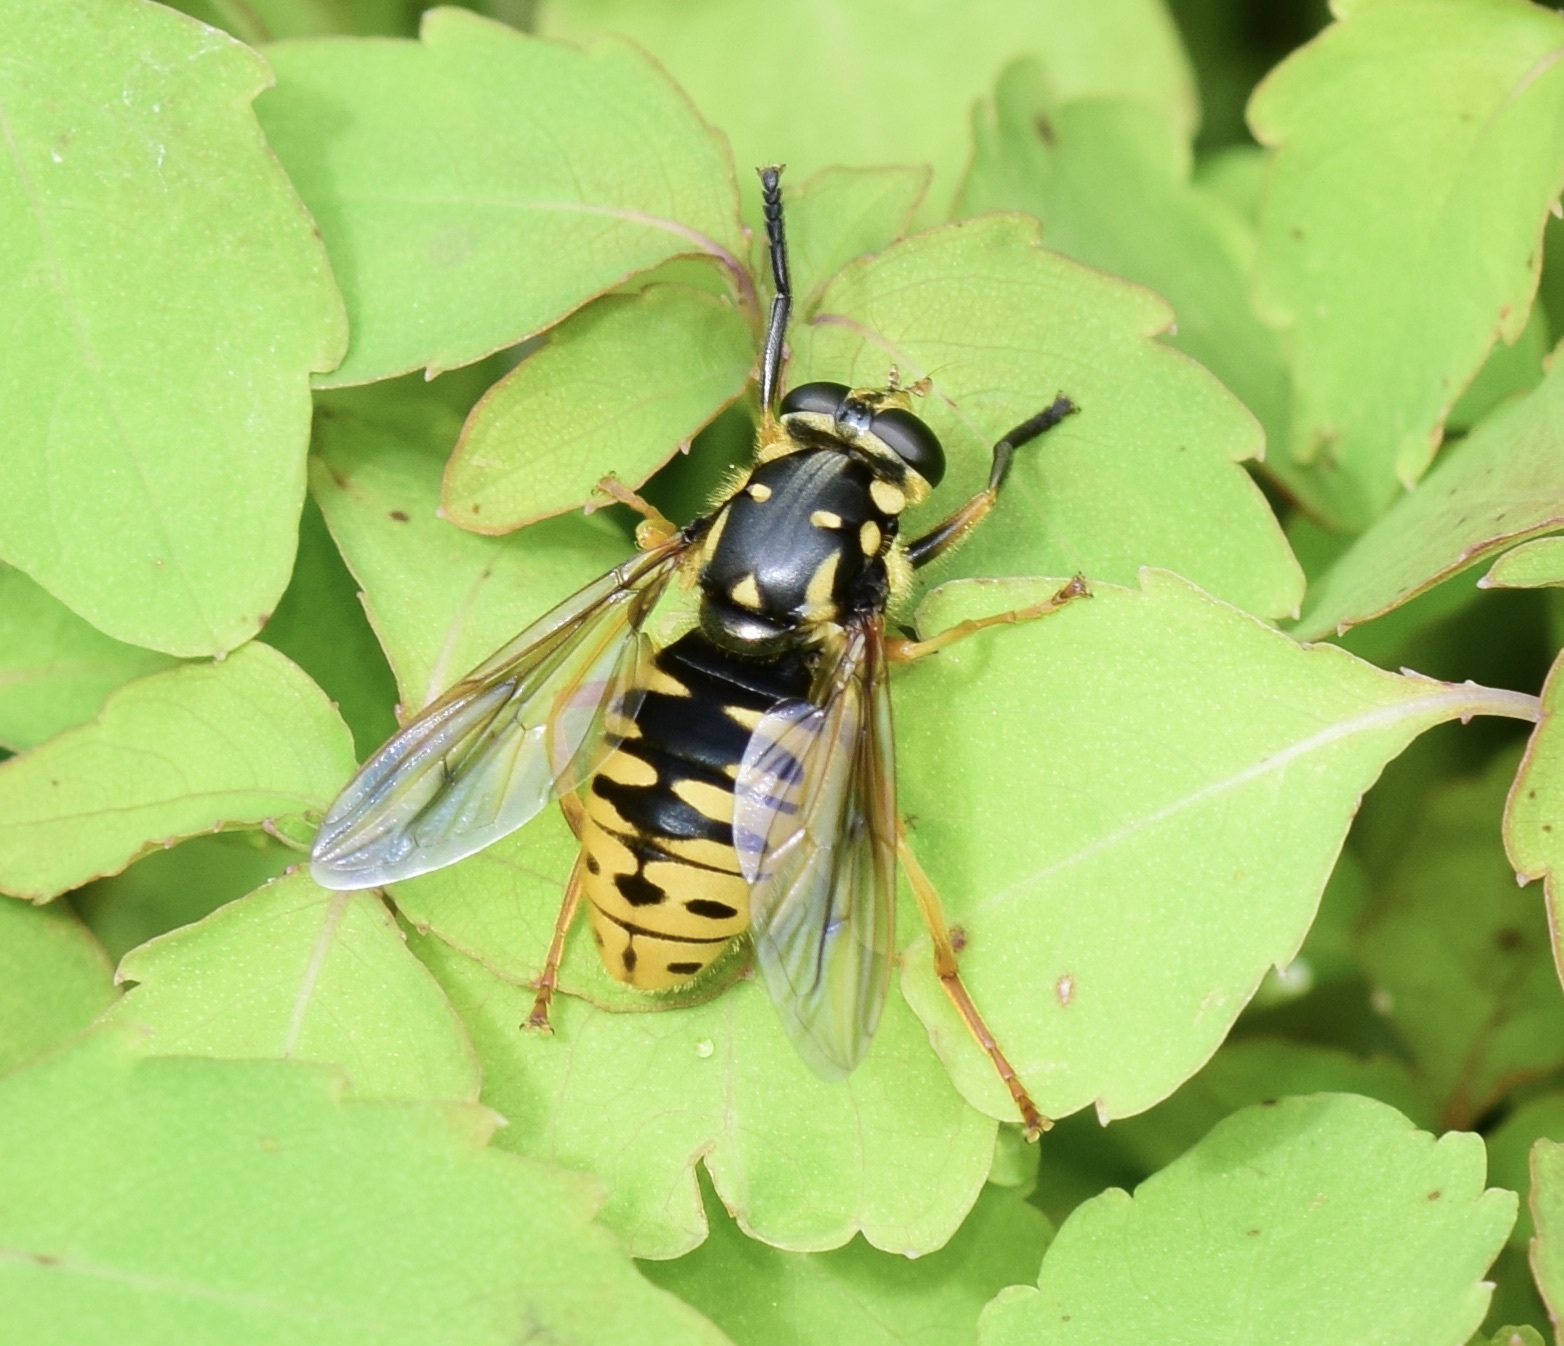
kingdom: Animalia
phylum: Arthropoda
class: Insecta
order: Diptera
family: Syrphidae
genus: Temnostoma
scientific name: Temnostoma alternans
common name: Wasp-like falsehorn
